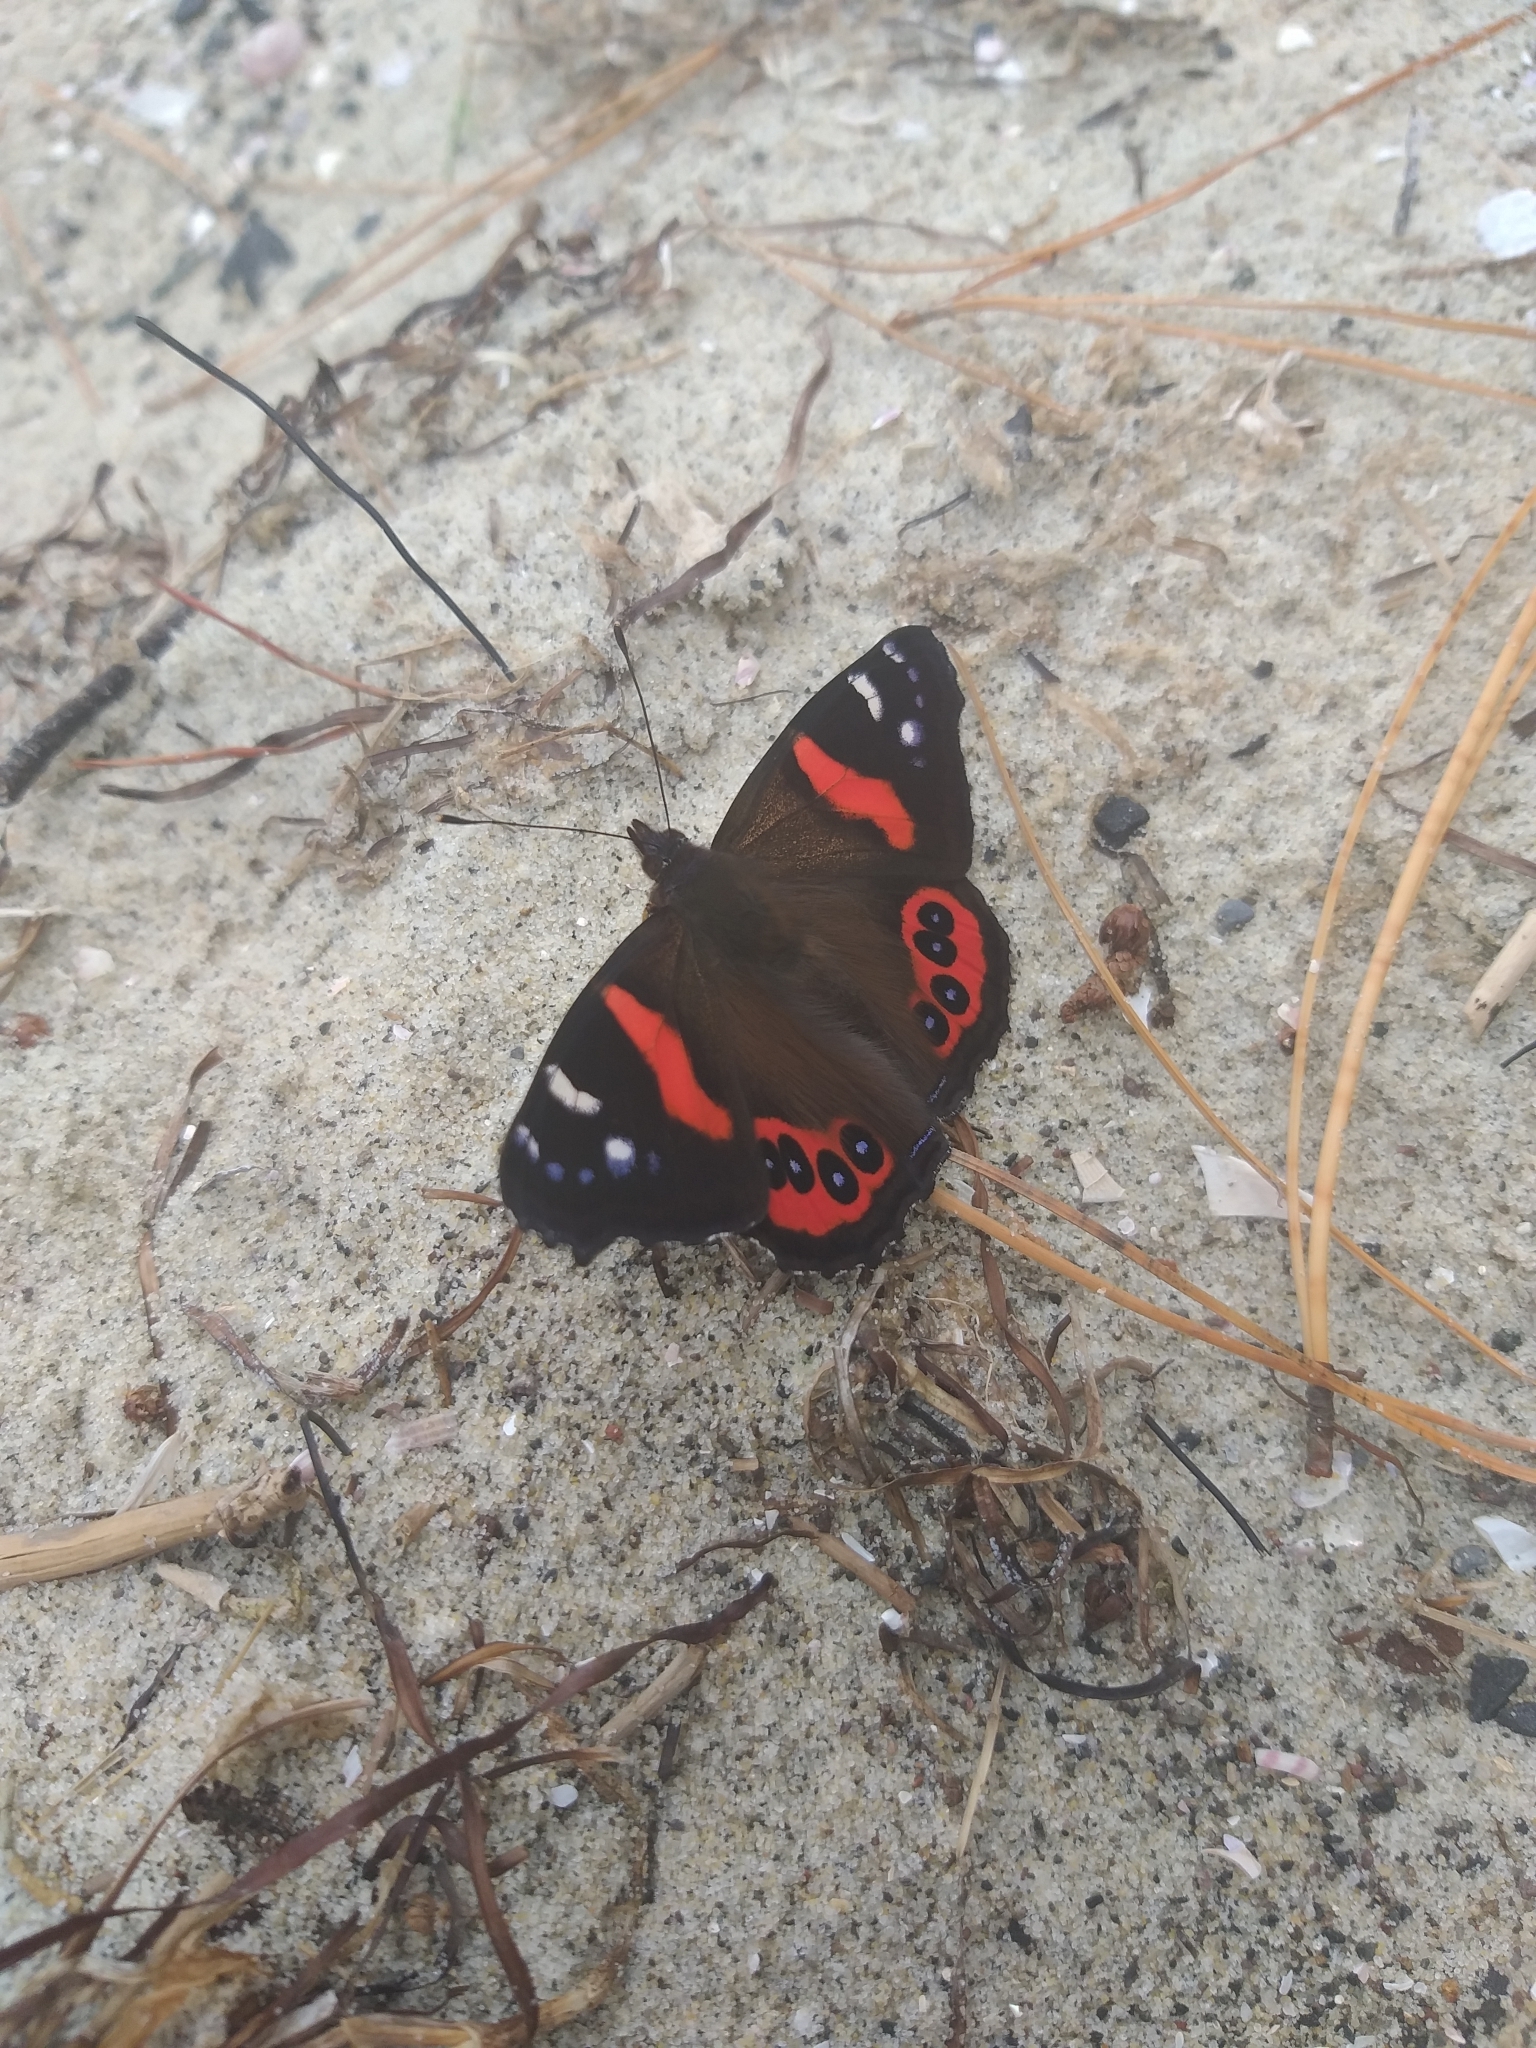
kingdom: Animalia
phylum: Arthropoda
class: Insecta
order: Lepidoptera
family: Nymphalidae
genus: Vanessa
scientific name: Vanessa gonerilla
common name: New zealand red admiral
